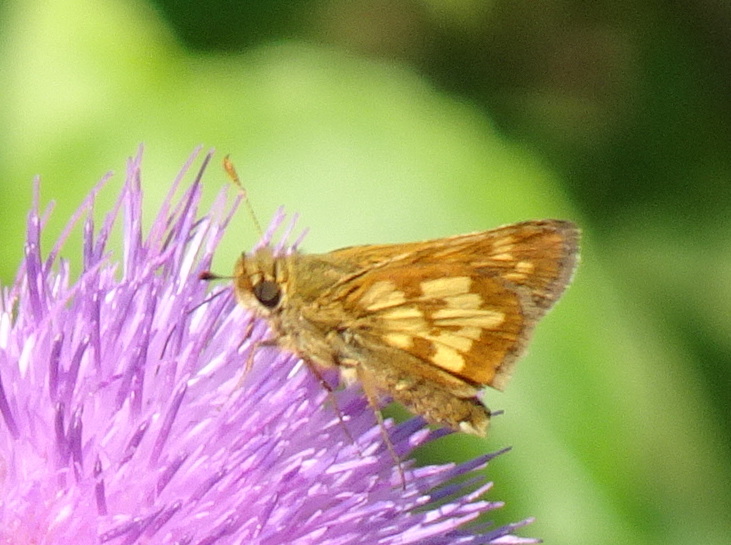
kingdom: Animalia
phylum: Arthropoda
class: Insecta
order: Lepidoptera
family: Hesperiidae
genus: Polites
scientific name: Polites coras
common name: Peck's skipper
